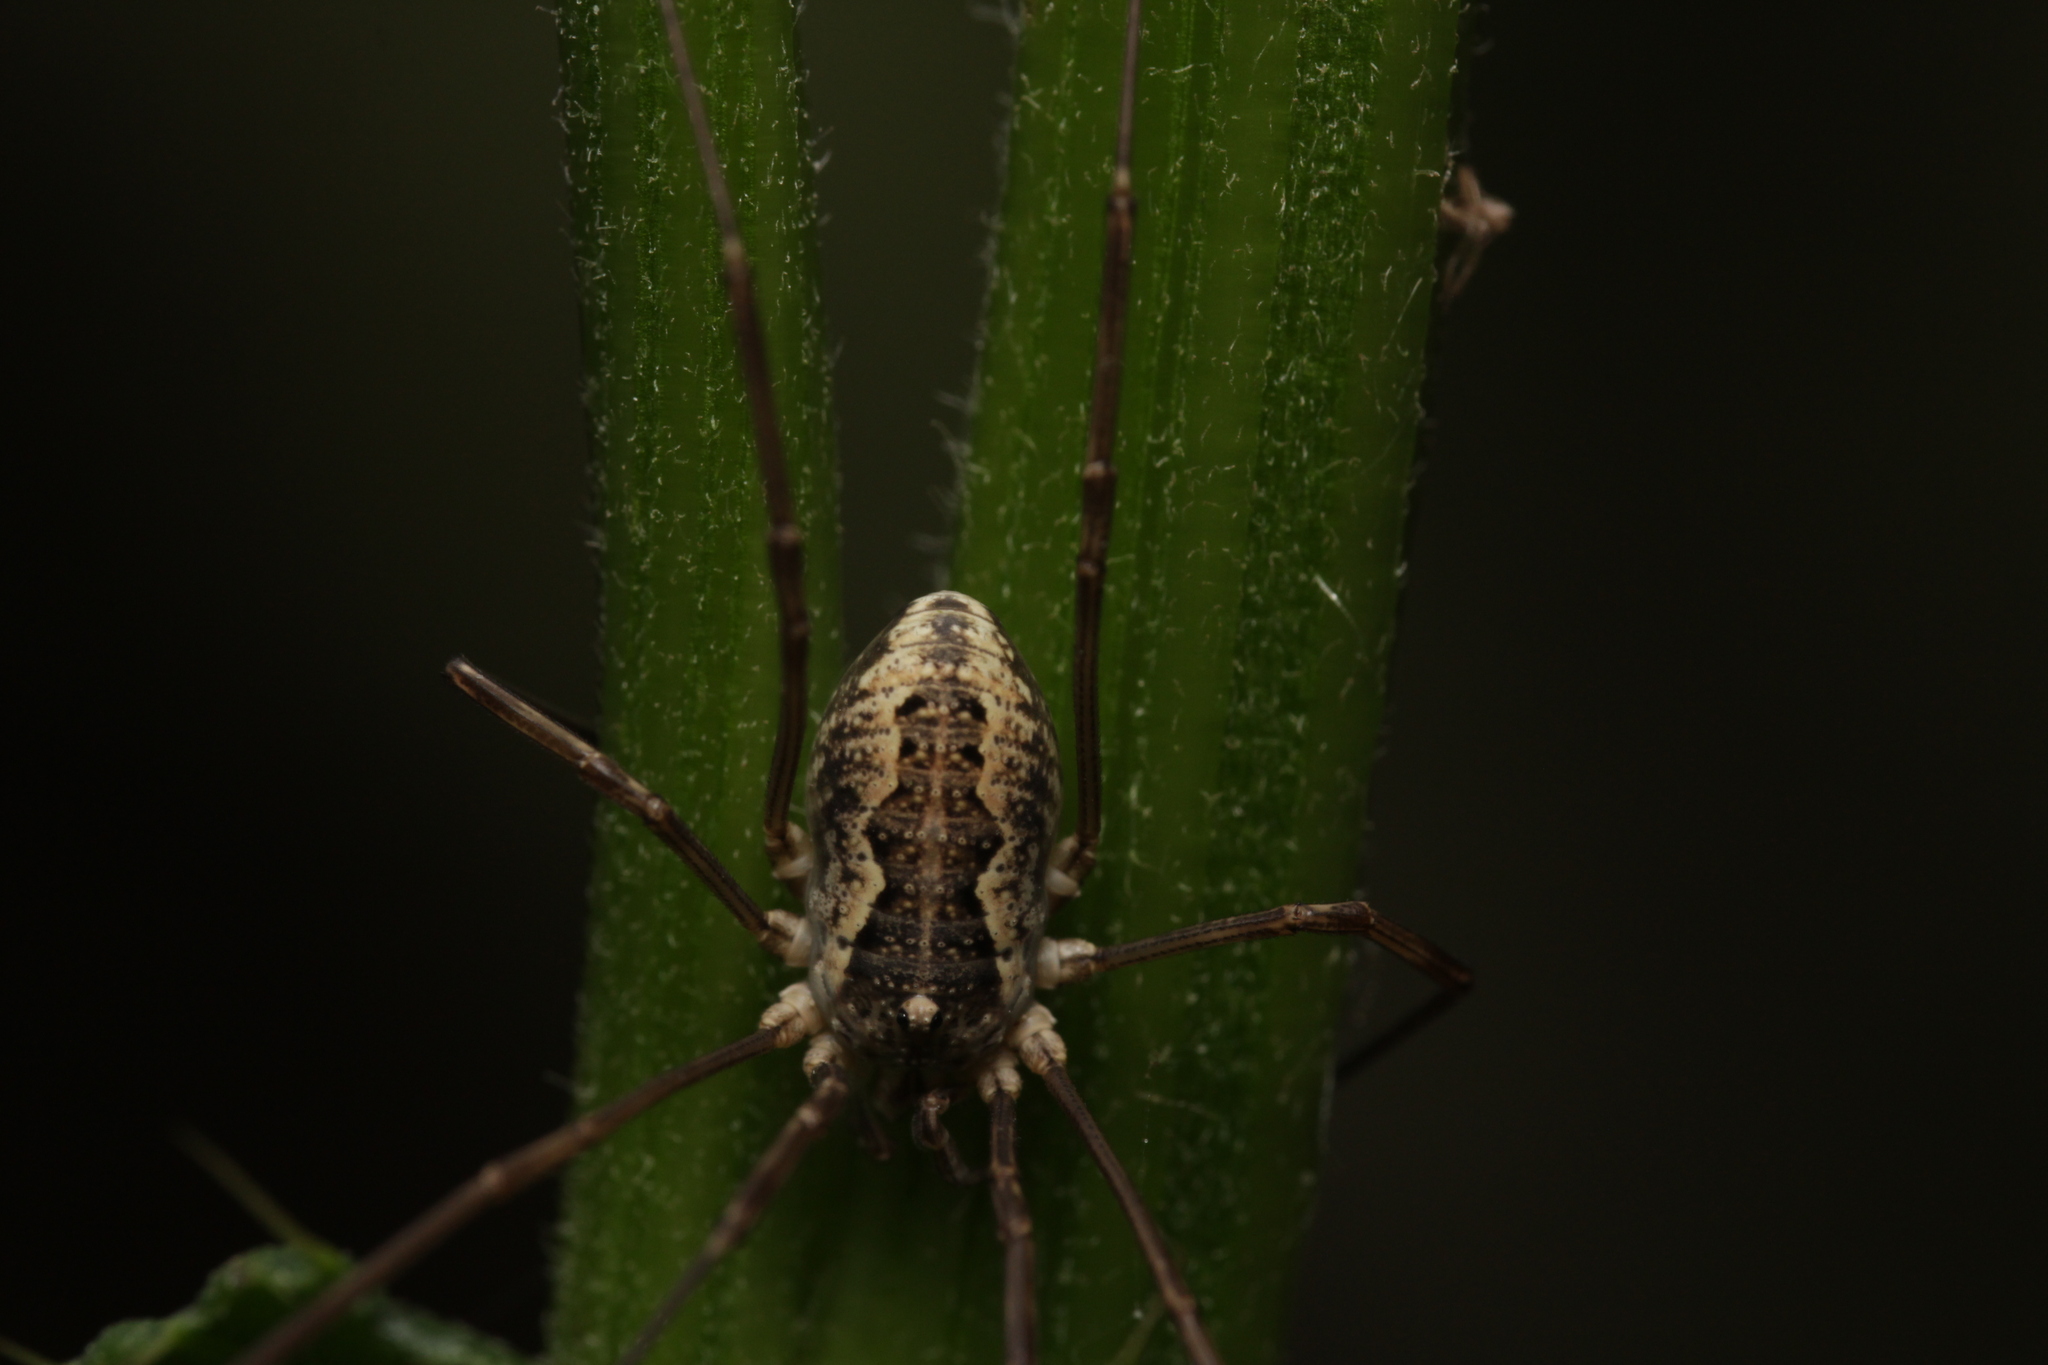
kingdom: Animalia
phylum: Arthropoda
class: Arachnida
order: Opiliones
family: Phalangiidae
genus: Mitopus
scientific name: Mitopus morio
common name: Saddleback harvestman
